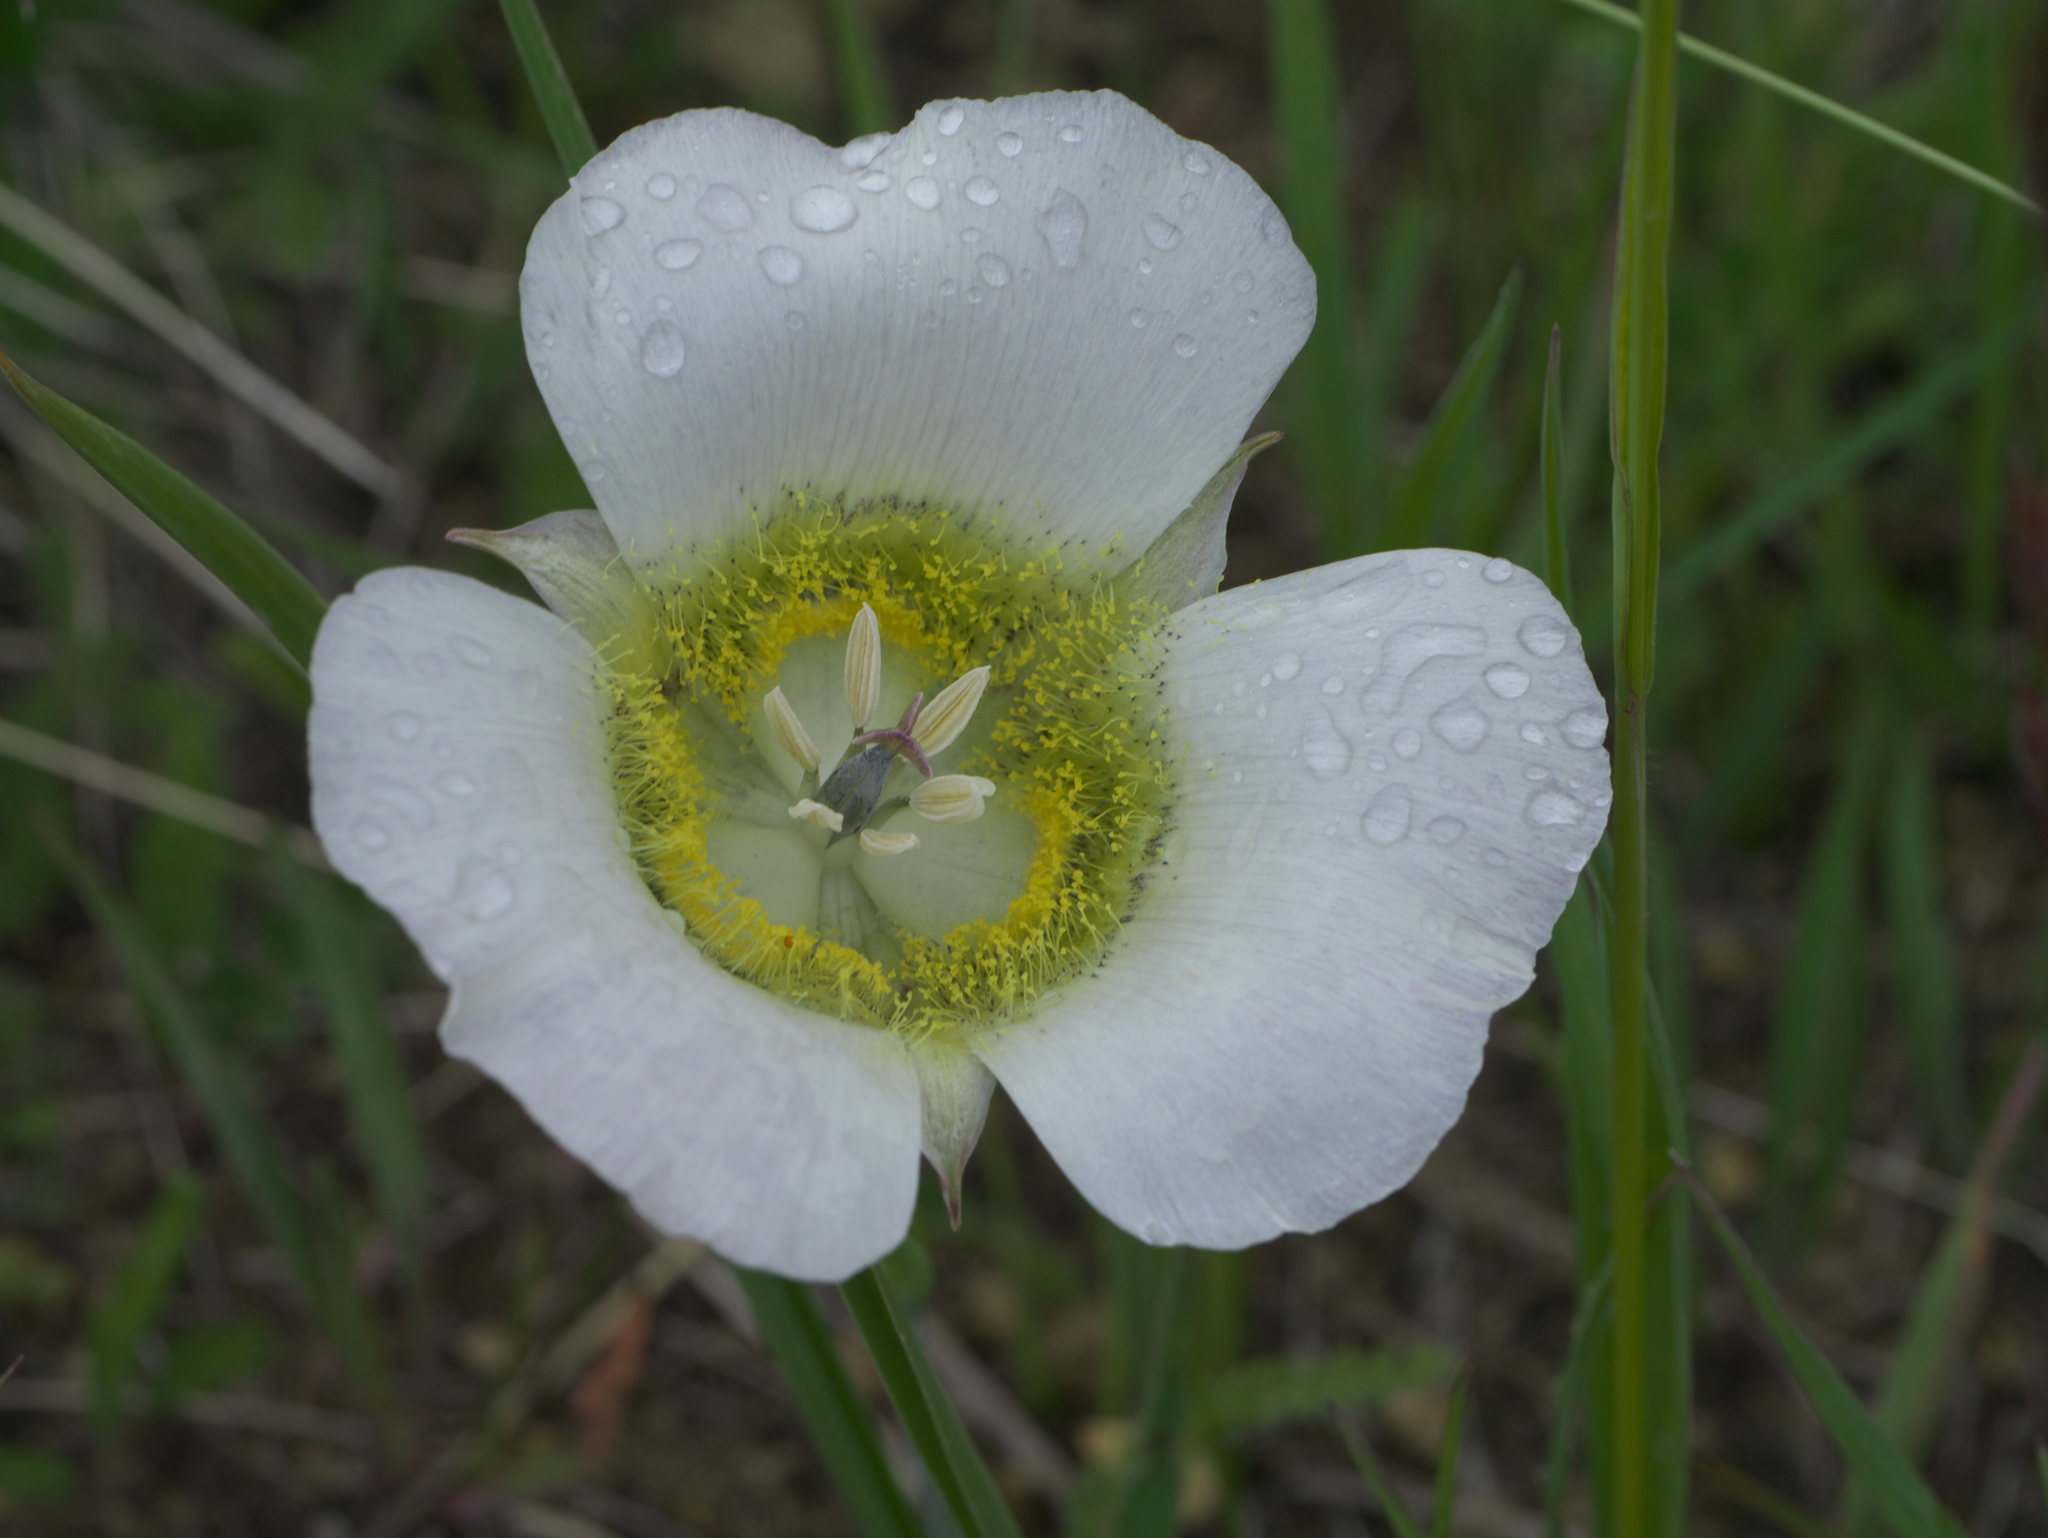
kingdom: Plantae
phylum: Tracheophyta
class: Liliopsida
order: Liliales
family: Liliaceae
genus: Calochortus
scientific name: Calochortus gunnisonii
